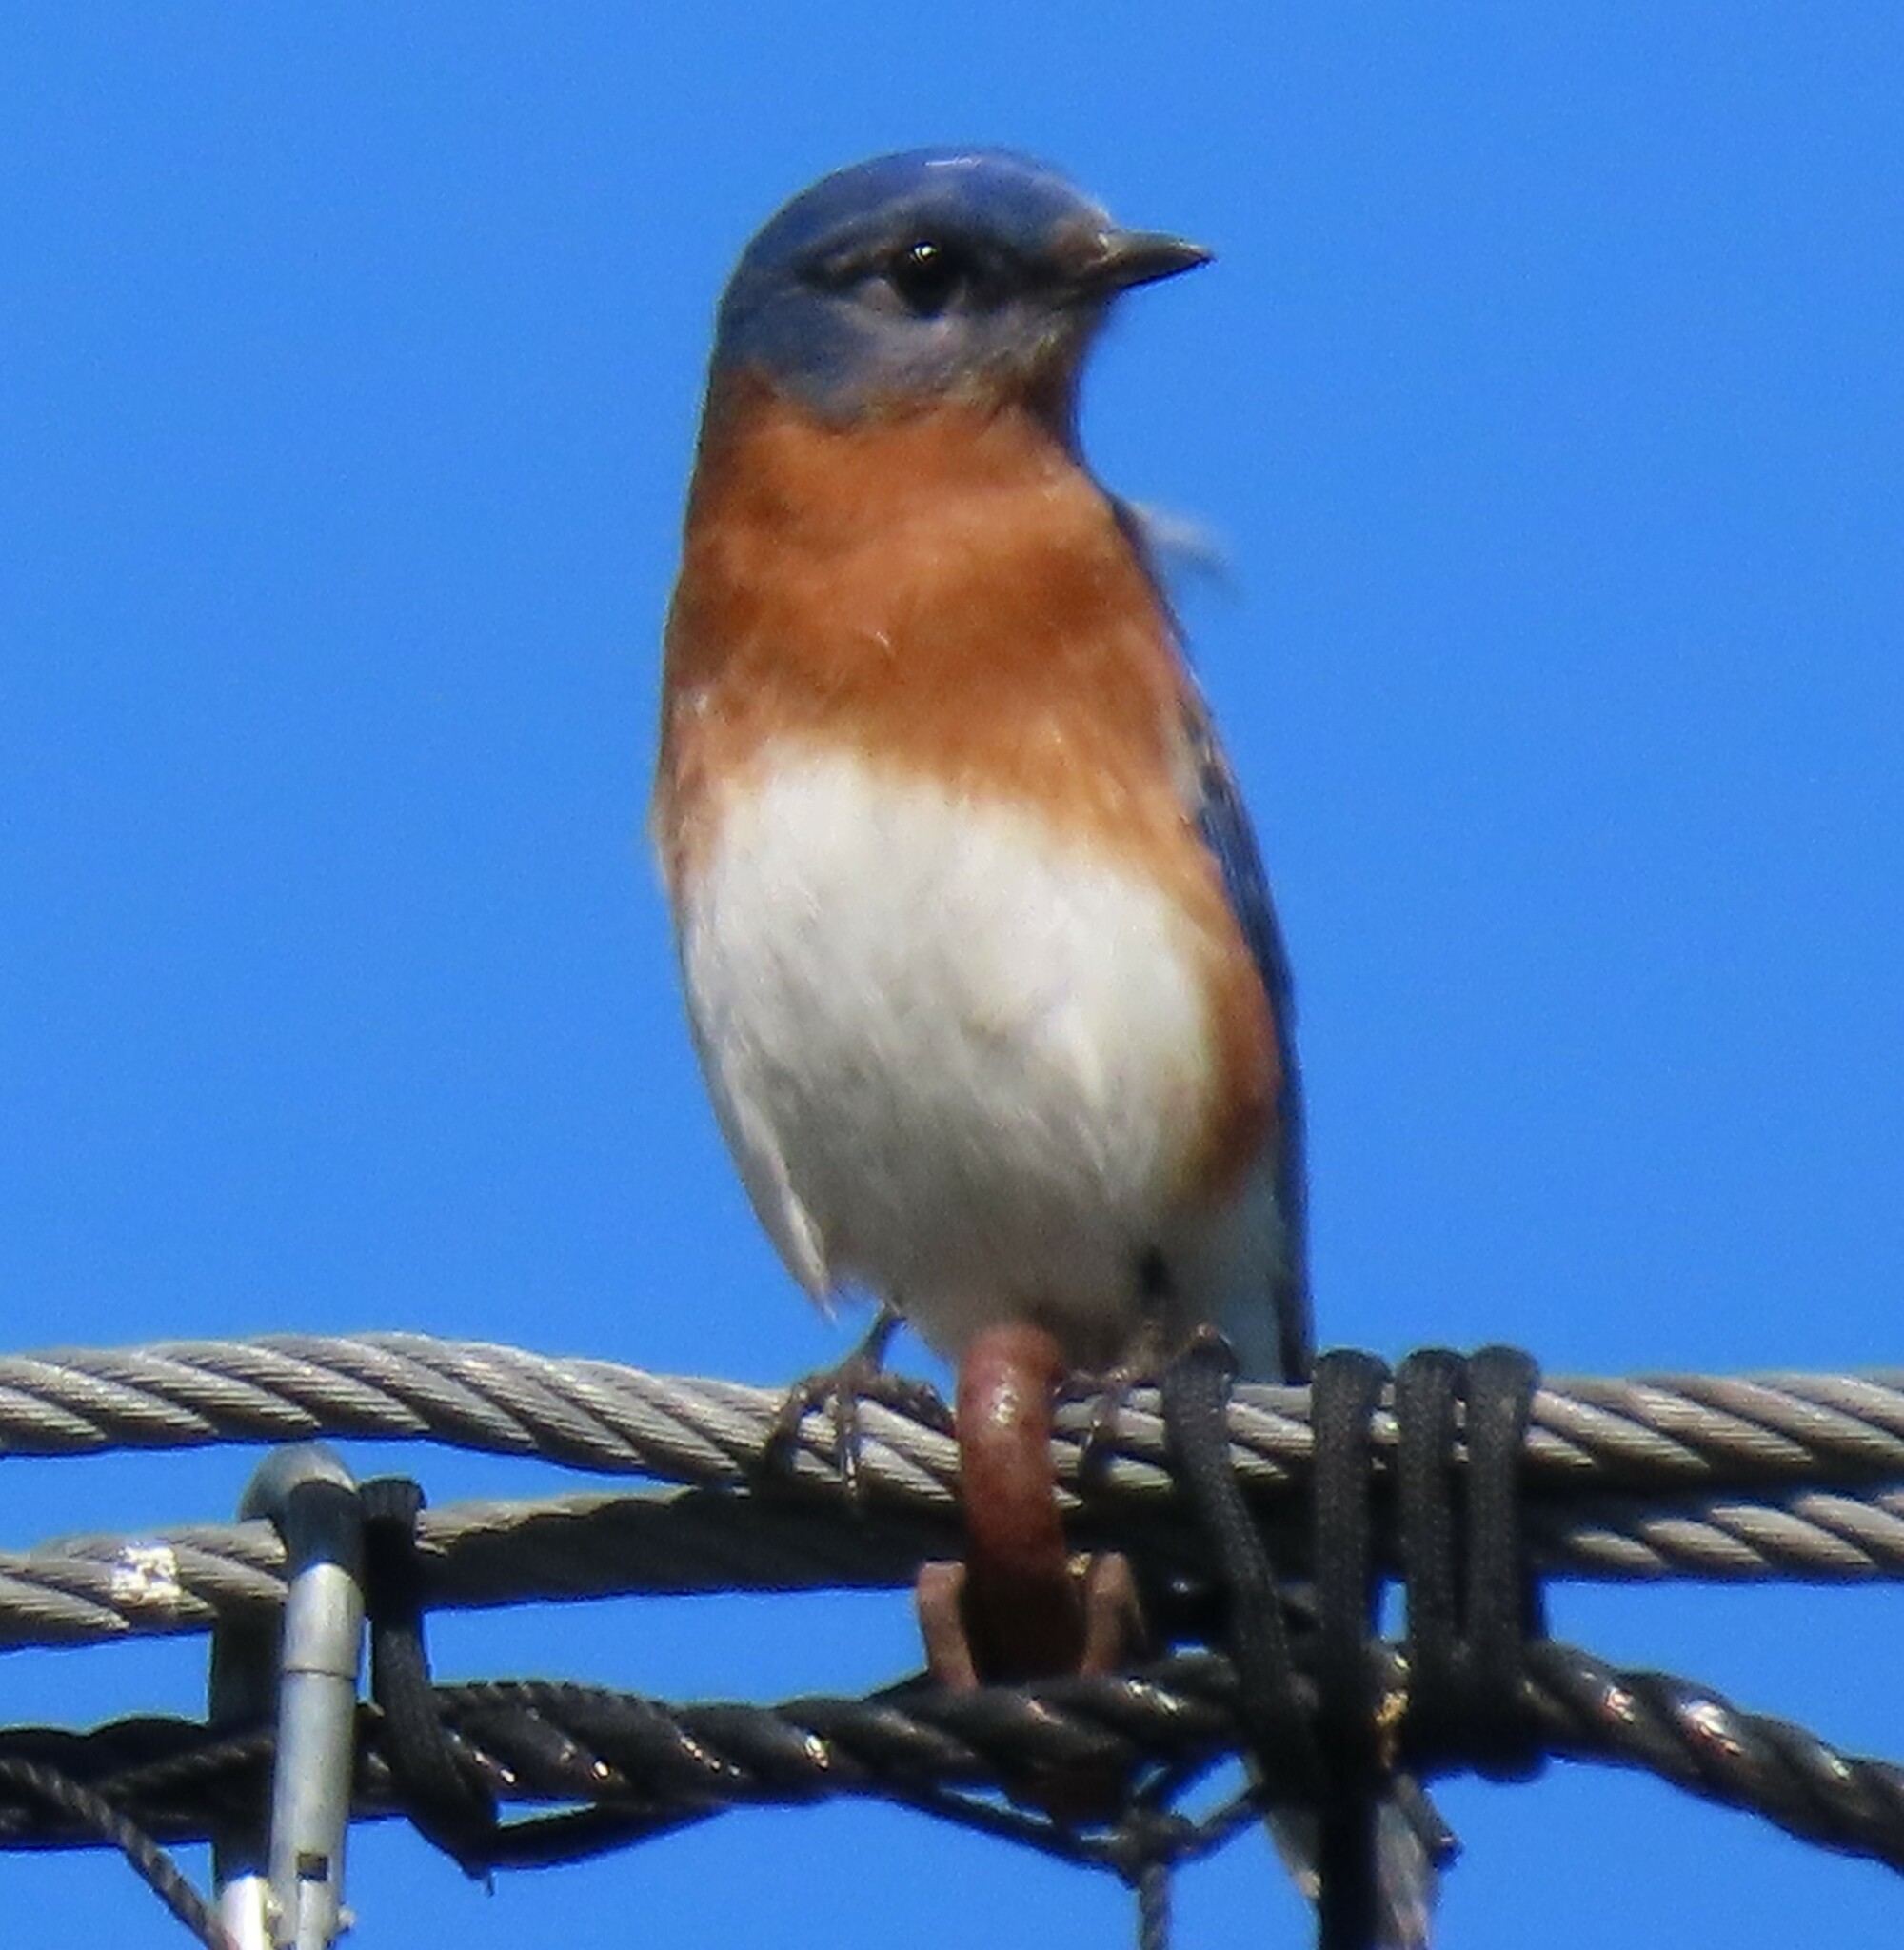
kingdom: Animalia
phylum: Chordata
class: Aves
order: Passeriformes
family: Turdidae
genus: Sialia
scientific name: Sialia sialis
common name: Eastern bluebird
